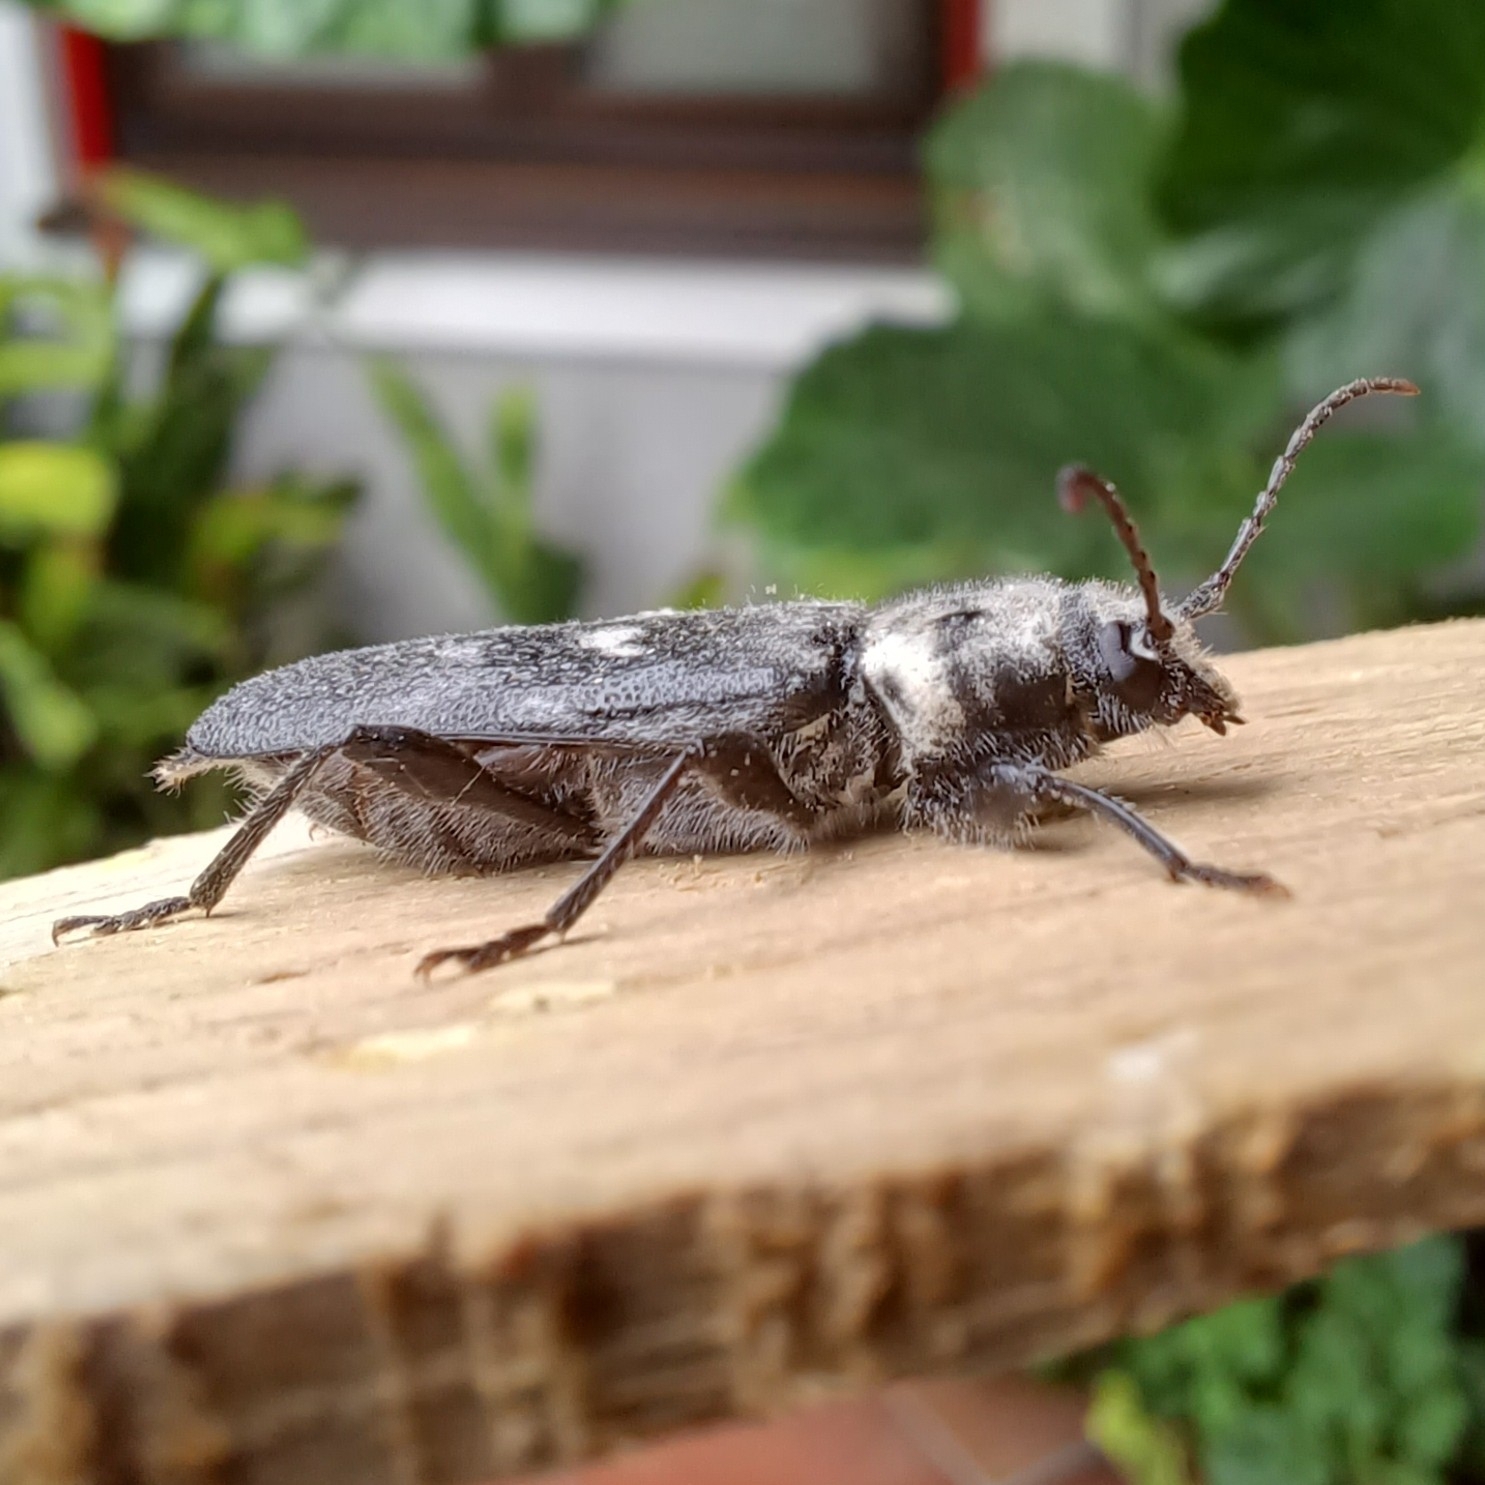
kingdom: Animalia
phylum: Arthropoda
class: Insecta
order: Coleoptera
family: Cerambycidae
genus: Hylotrupes
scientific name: Hylotrupes bajulus
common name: Old house borer
